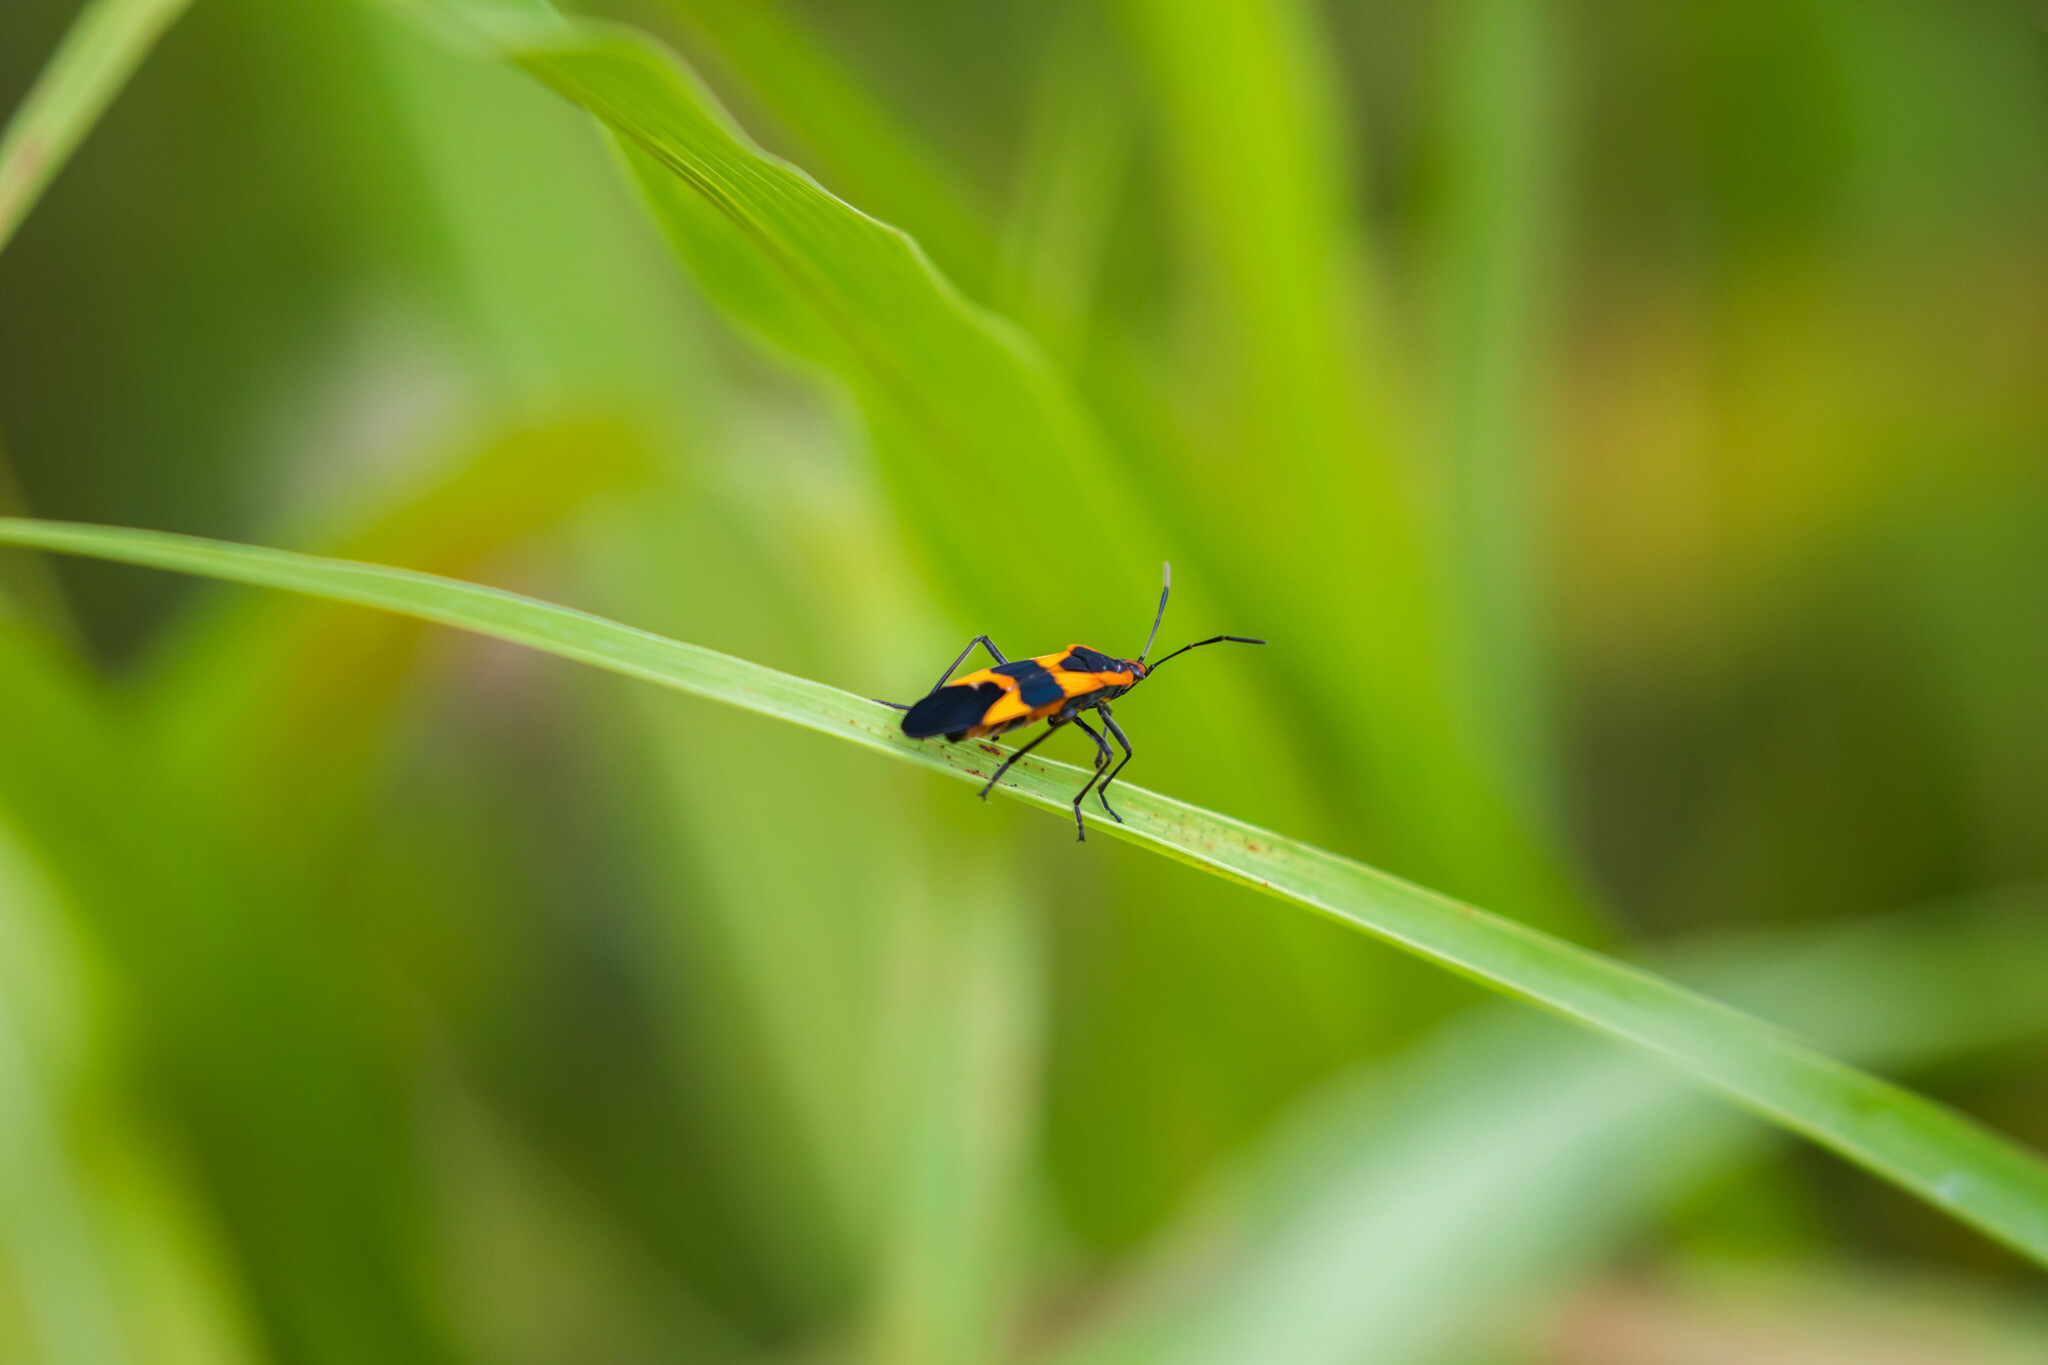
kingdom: Animalia
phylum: Arthropoda
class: Insecta
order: Hemiptera
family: Lygaeidae
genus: Oncopeltus
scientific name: Oncopeltus fasciatus
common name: Large milkweed bug
